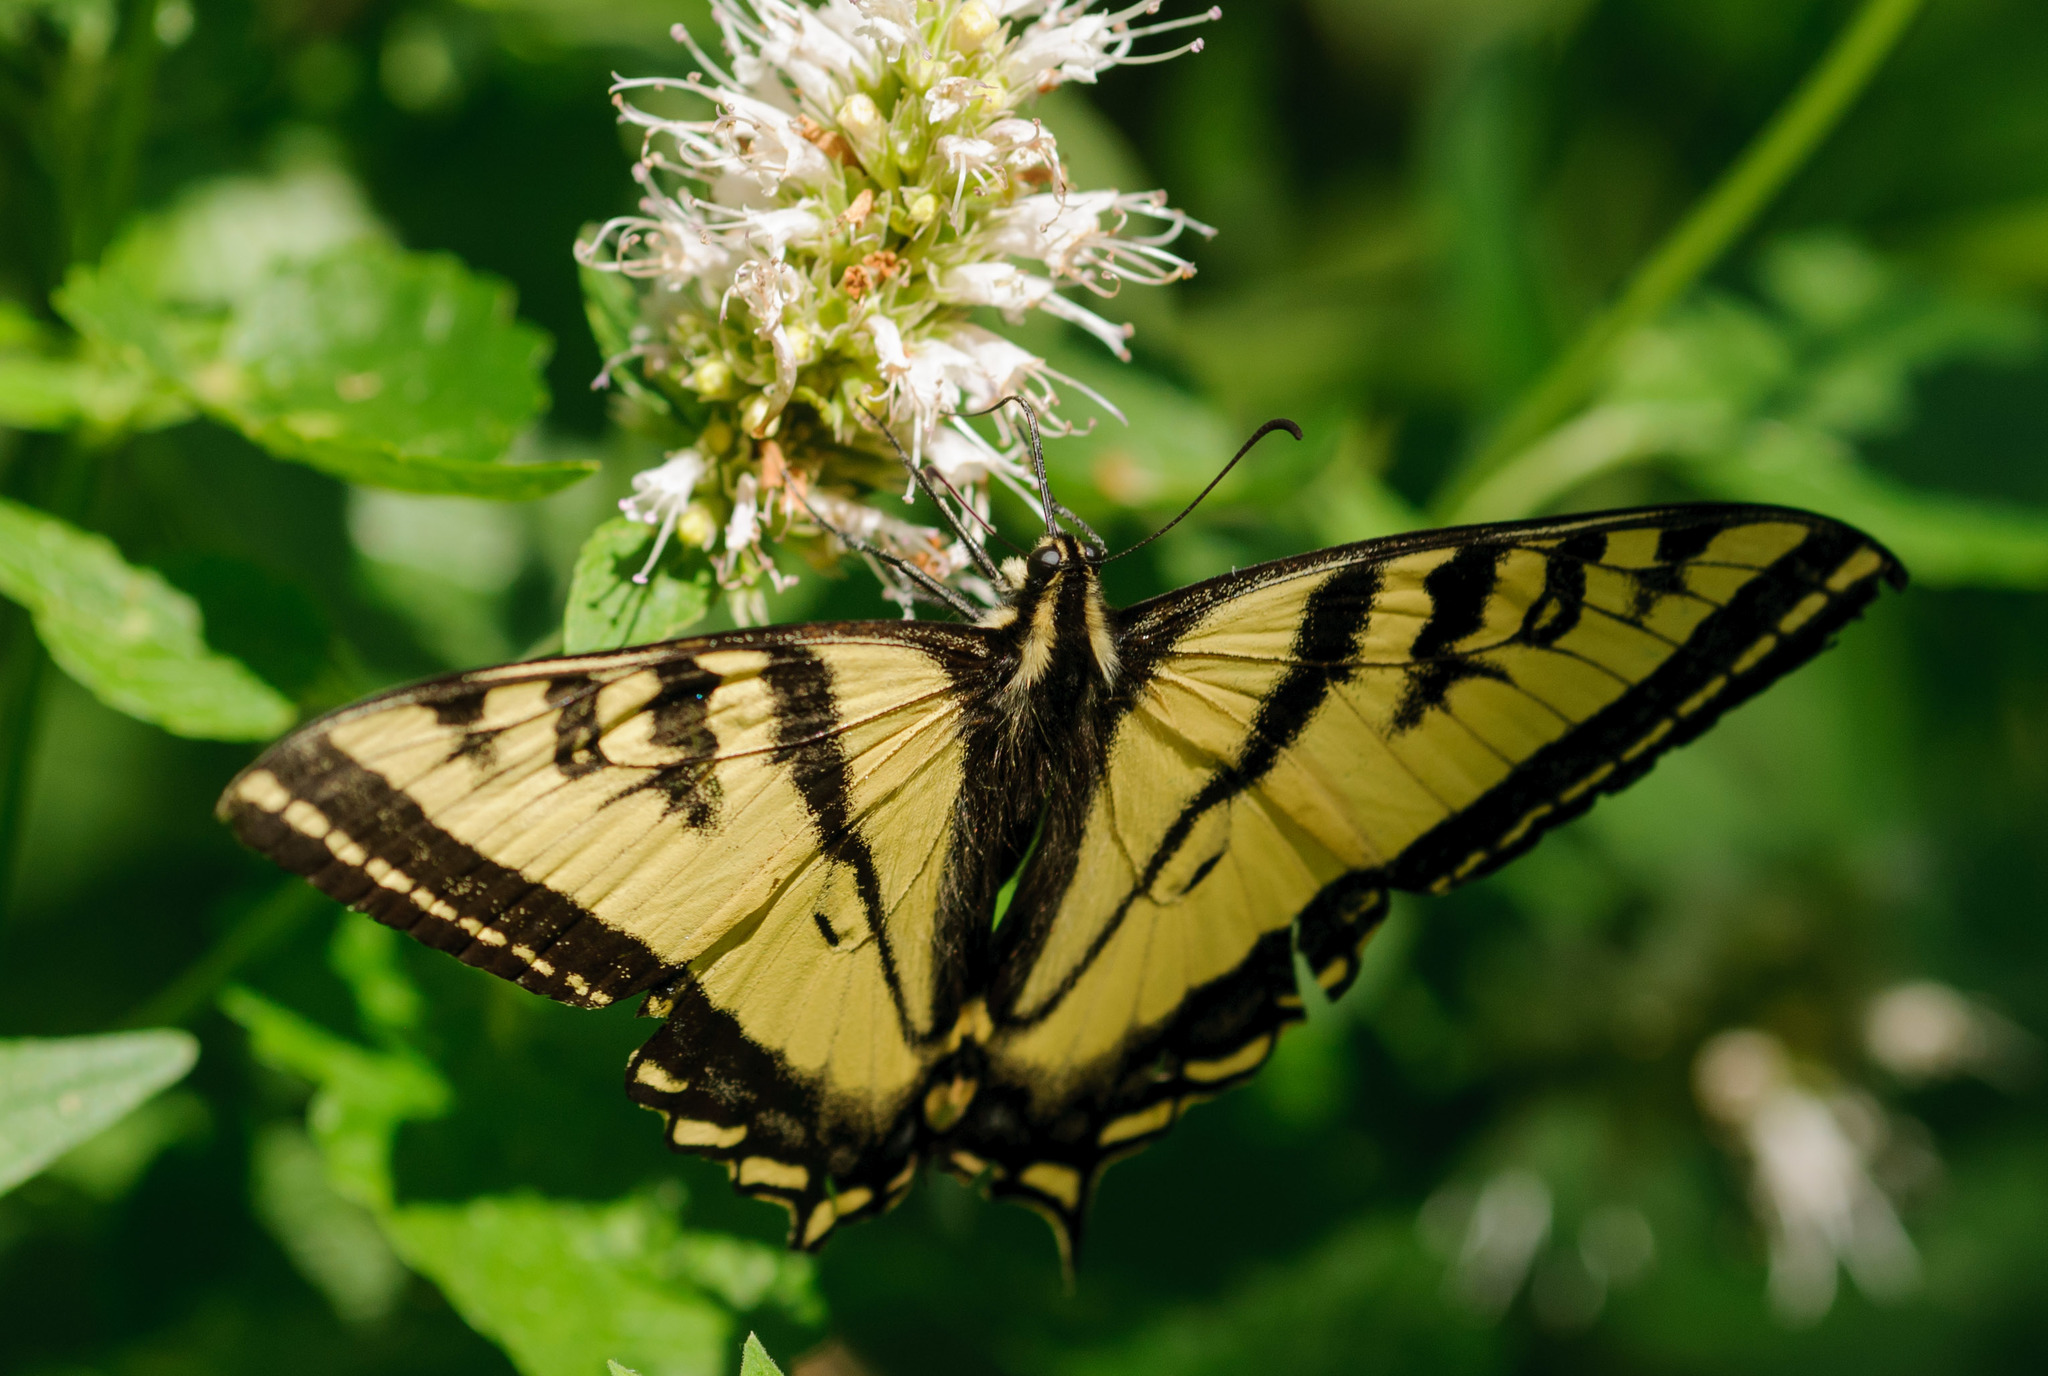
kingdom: Animalia
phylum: Arthropoda
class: Insecta
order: Lepidoptera
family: Papilionidae
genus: Papilio
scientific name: Papilio rutulus
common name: Western tiger swallowtail
